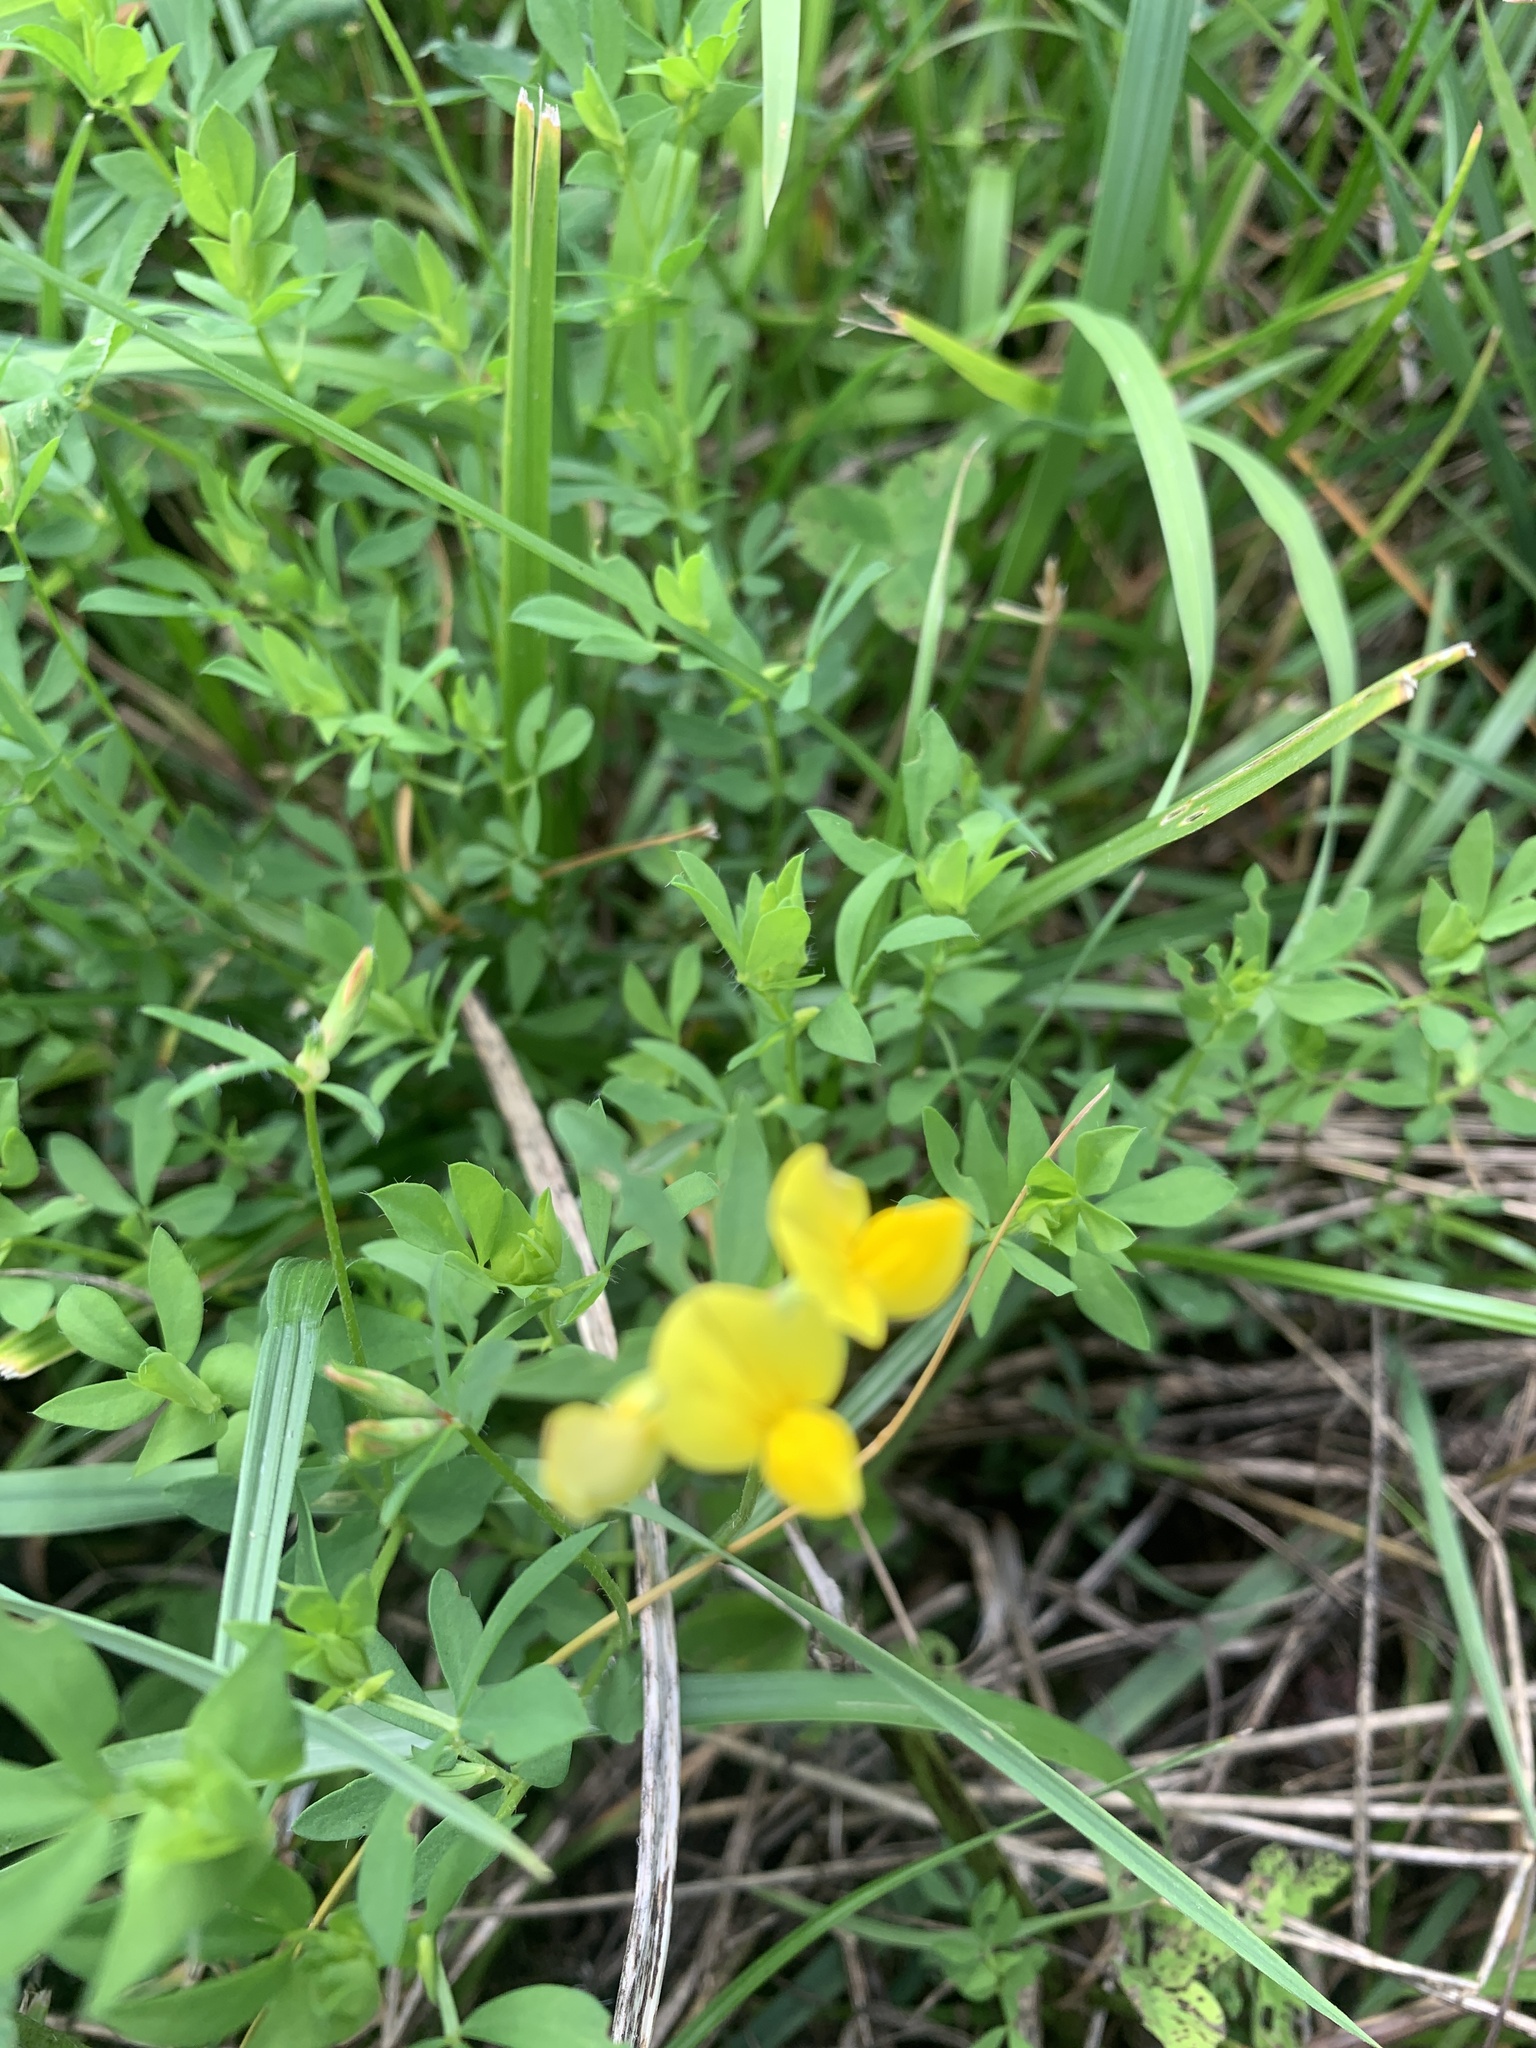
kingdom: Plantae
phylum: Tracheophyta
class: Magnoliopsida
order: Fabales
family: Fabaceae
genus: Lotus
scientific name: Lotus tenuis
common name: Narrow-leaved bird's-foot-trefoil
